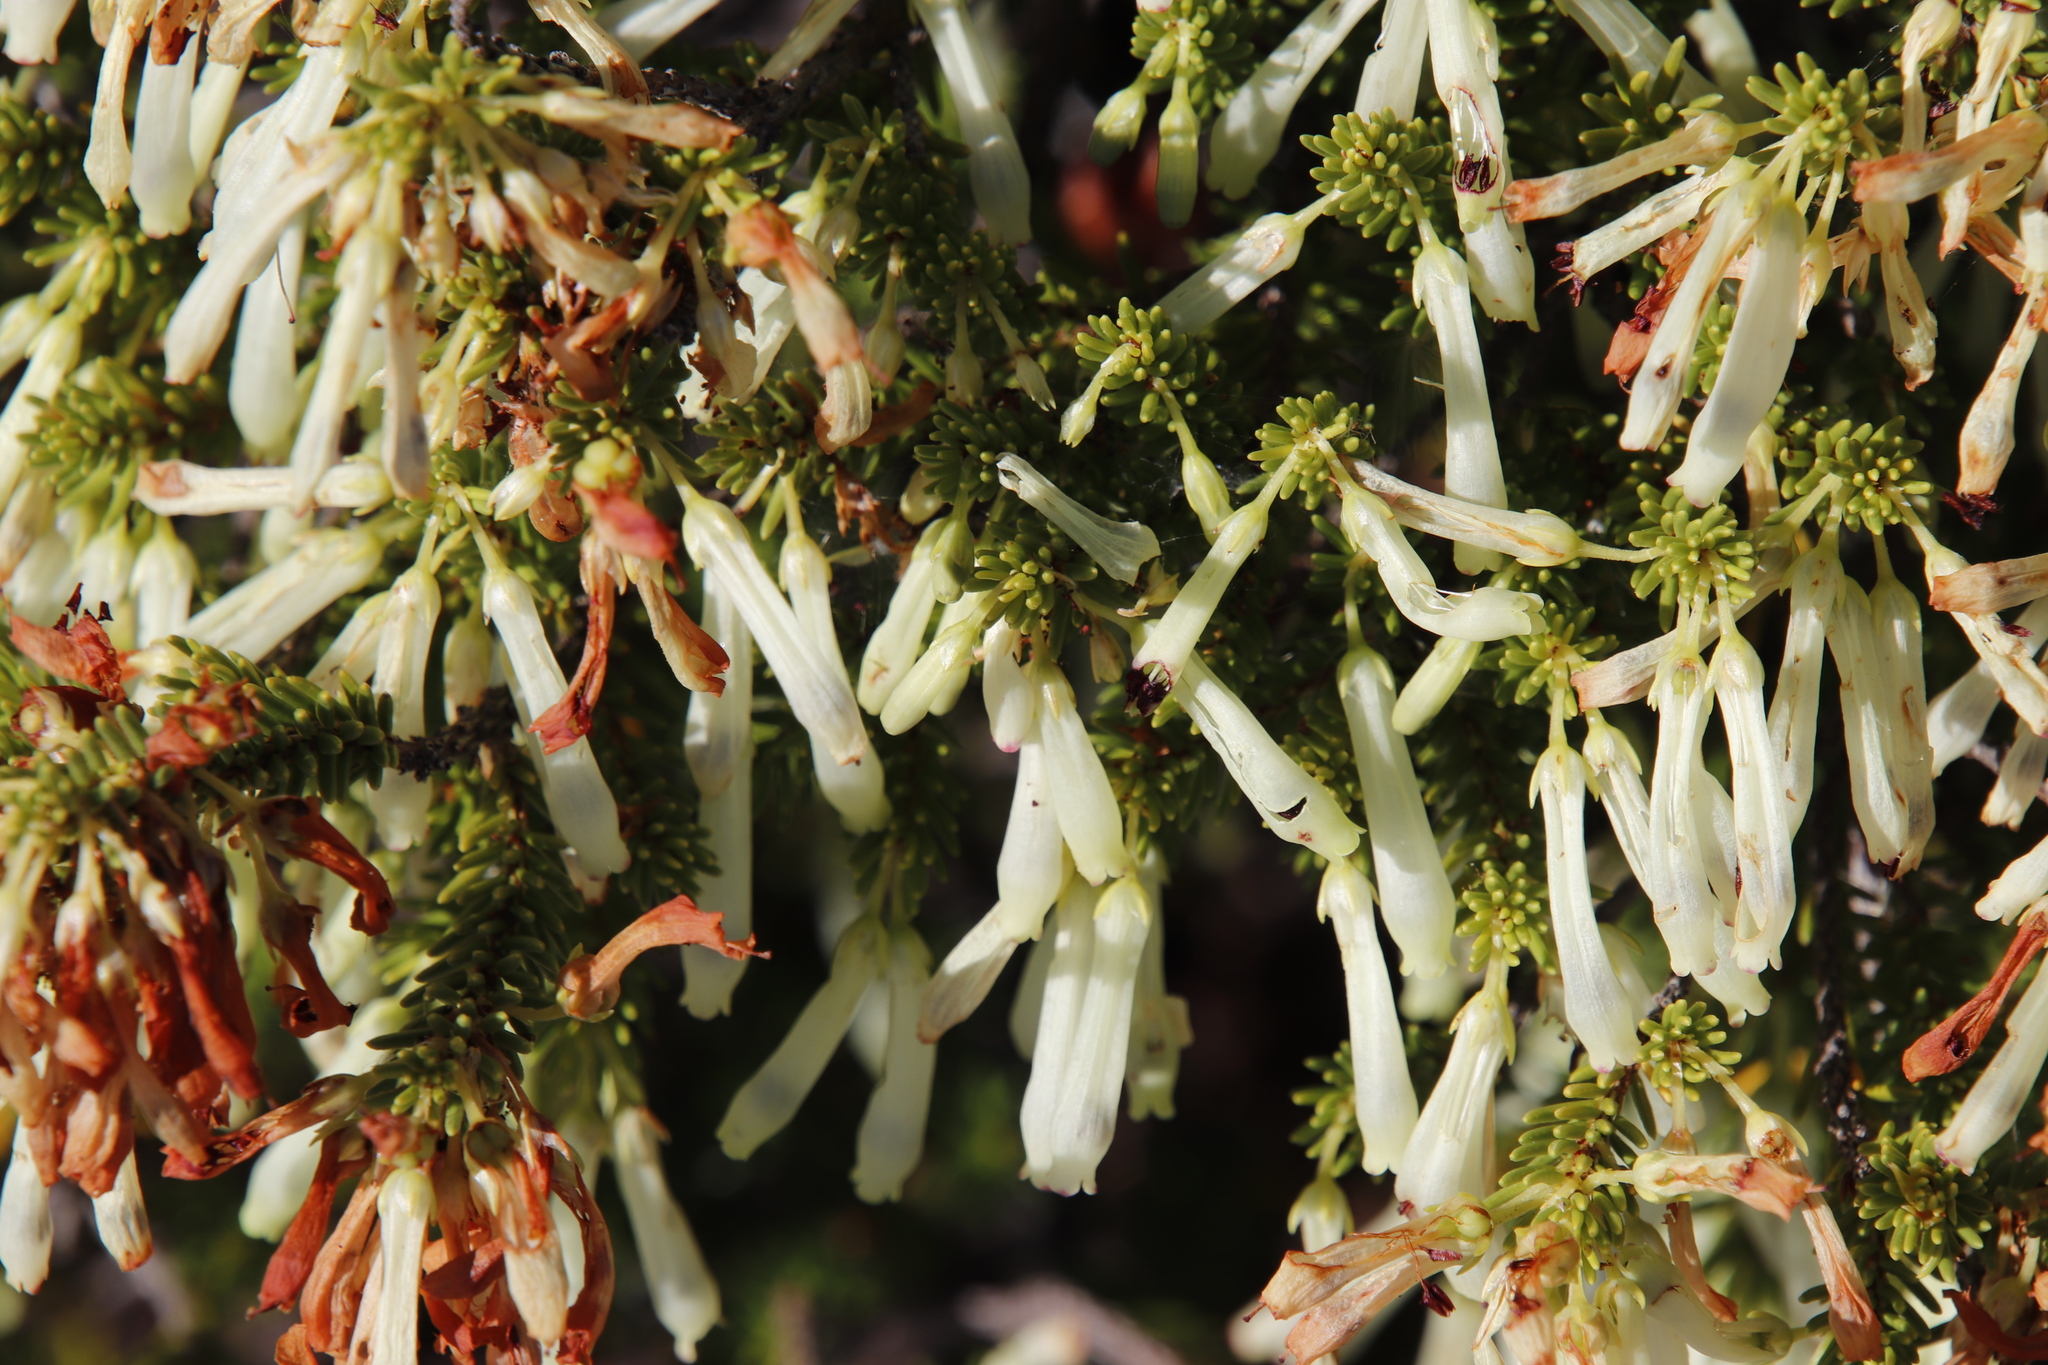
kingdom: Plantae
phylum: Tracheophyta
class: Magnoliopsida
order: Ericales
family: Ericaceae
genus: Erica
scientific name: Erica mammosa
